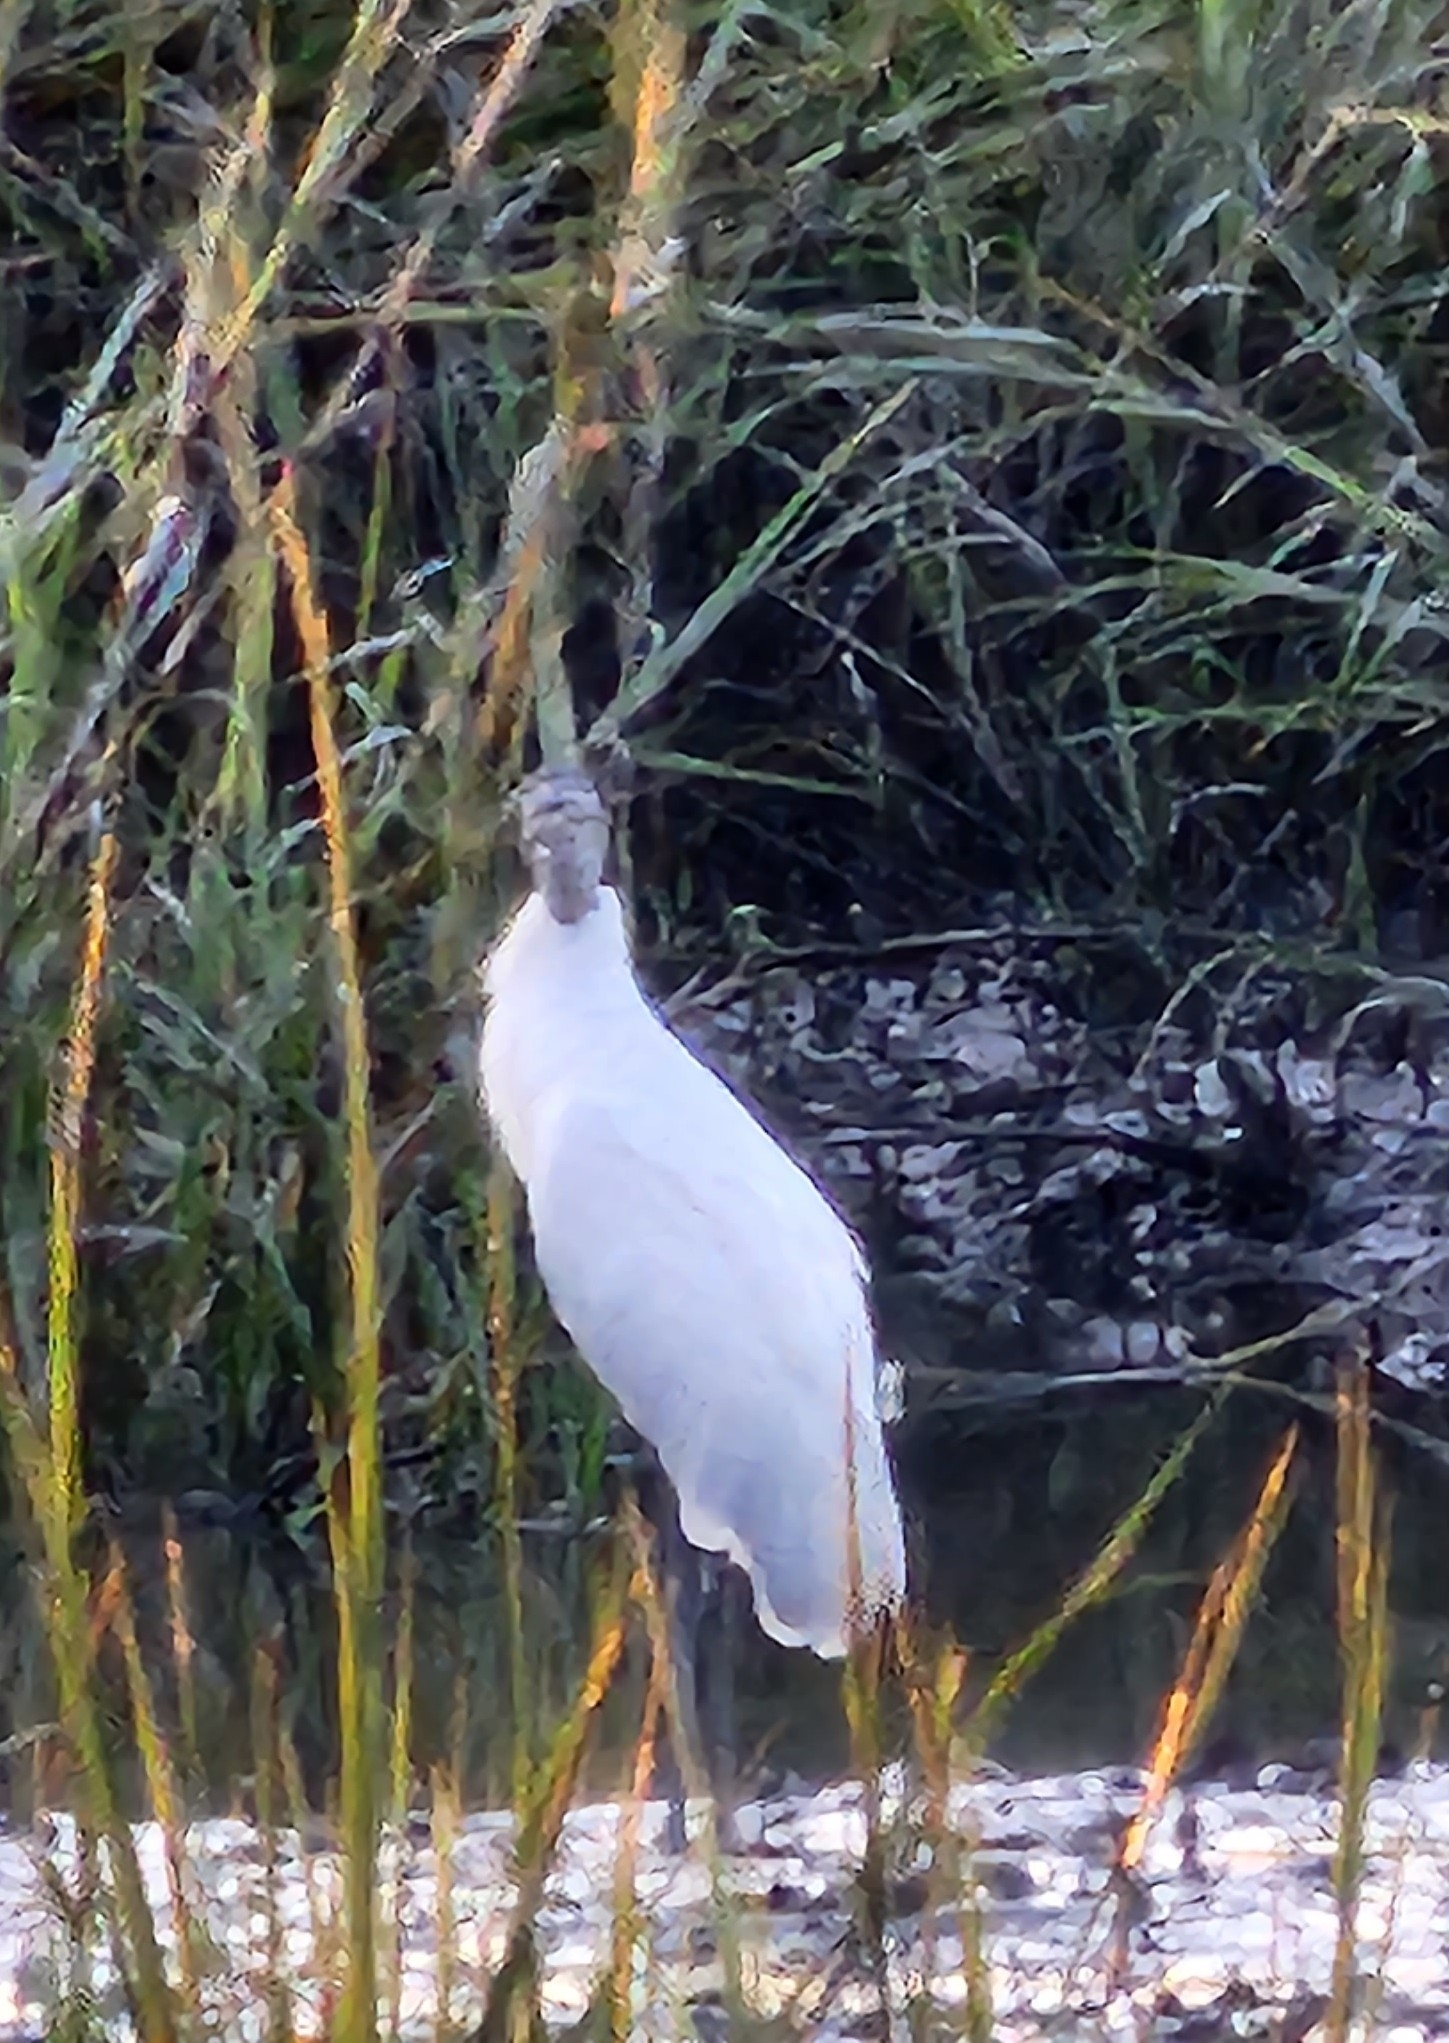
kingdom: Animalia
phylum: Chordata
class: Aves
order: Ciconiiformes
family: Ciconiidae
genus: Mycteria
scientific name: Mycteria americana
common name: Wood stork
